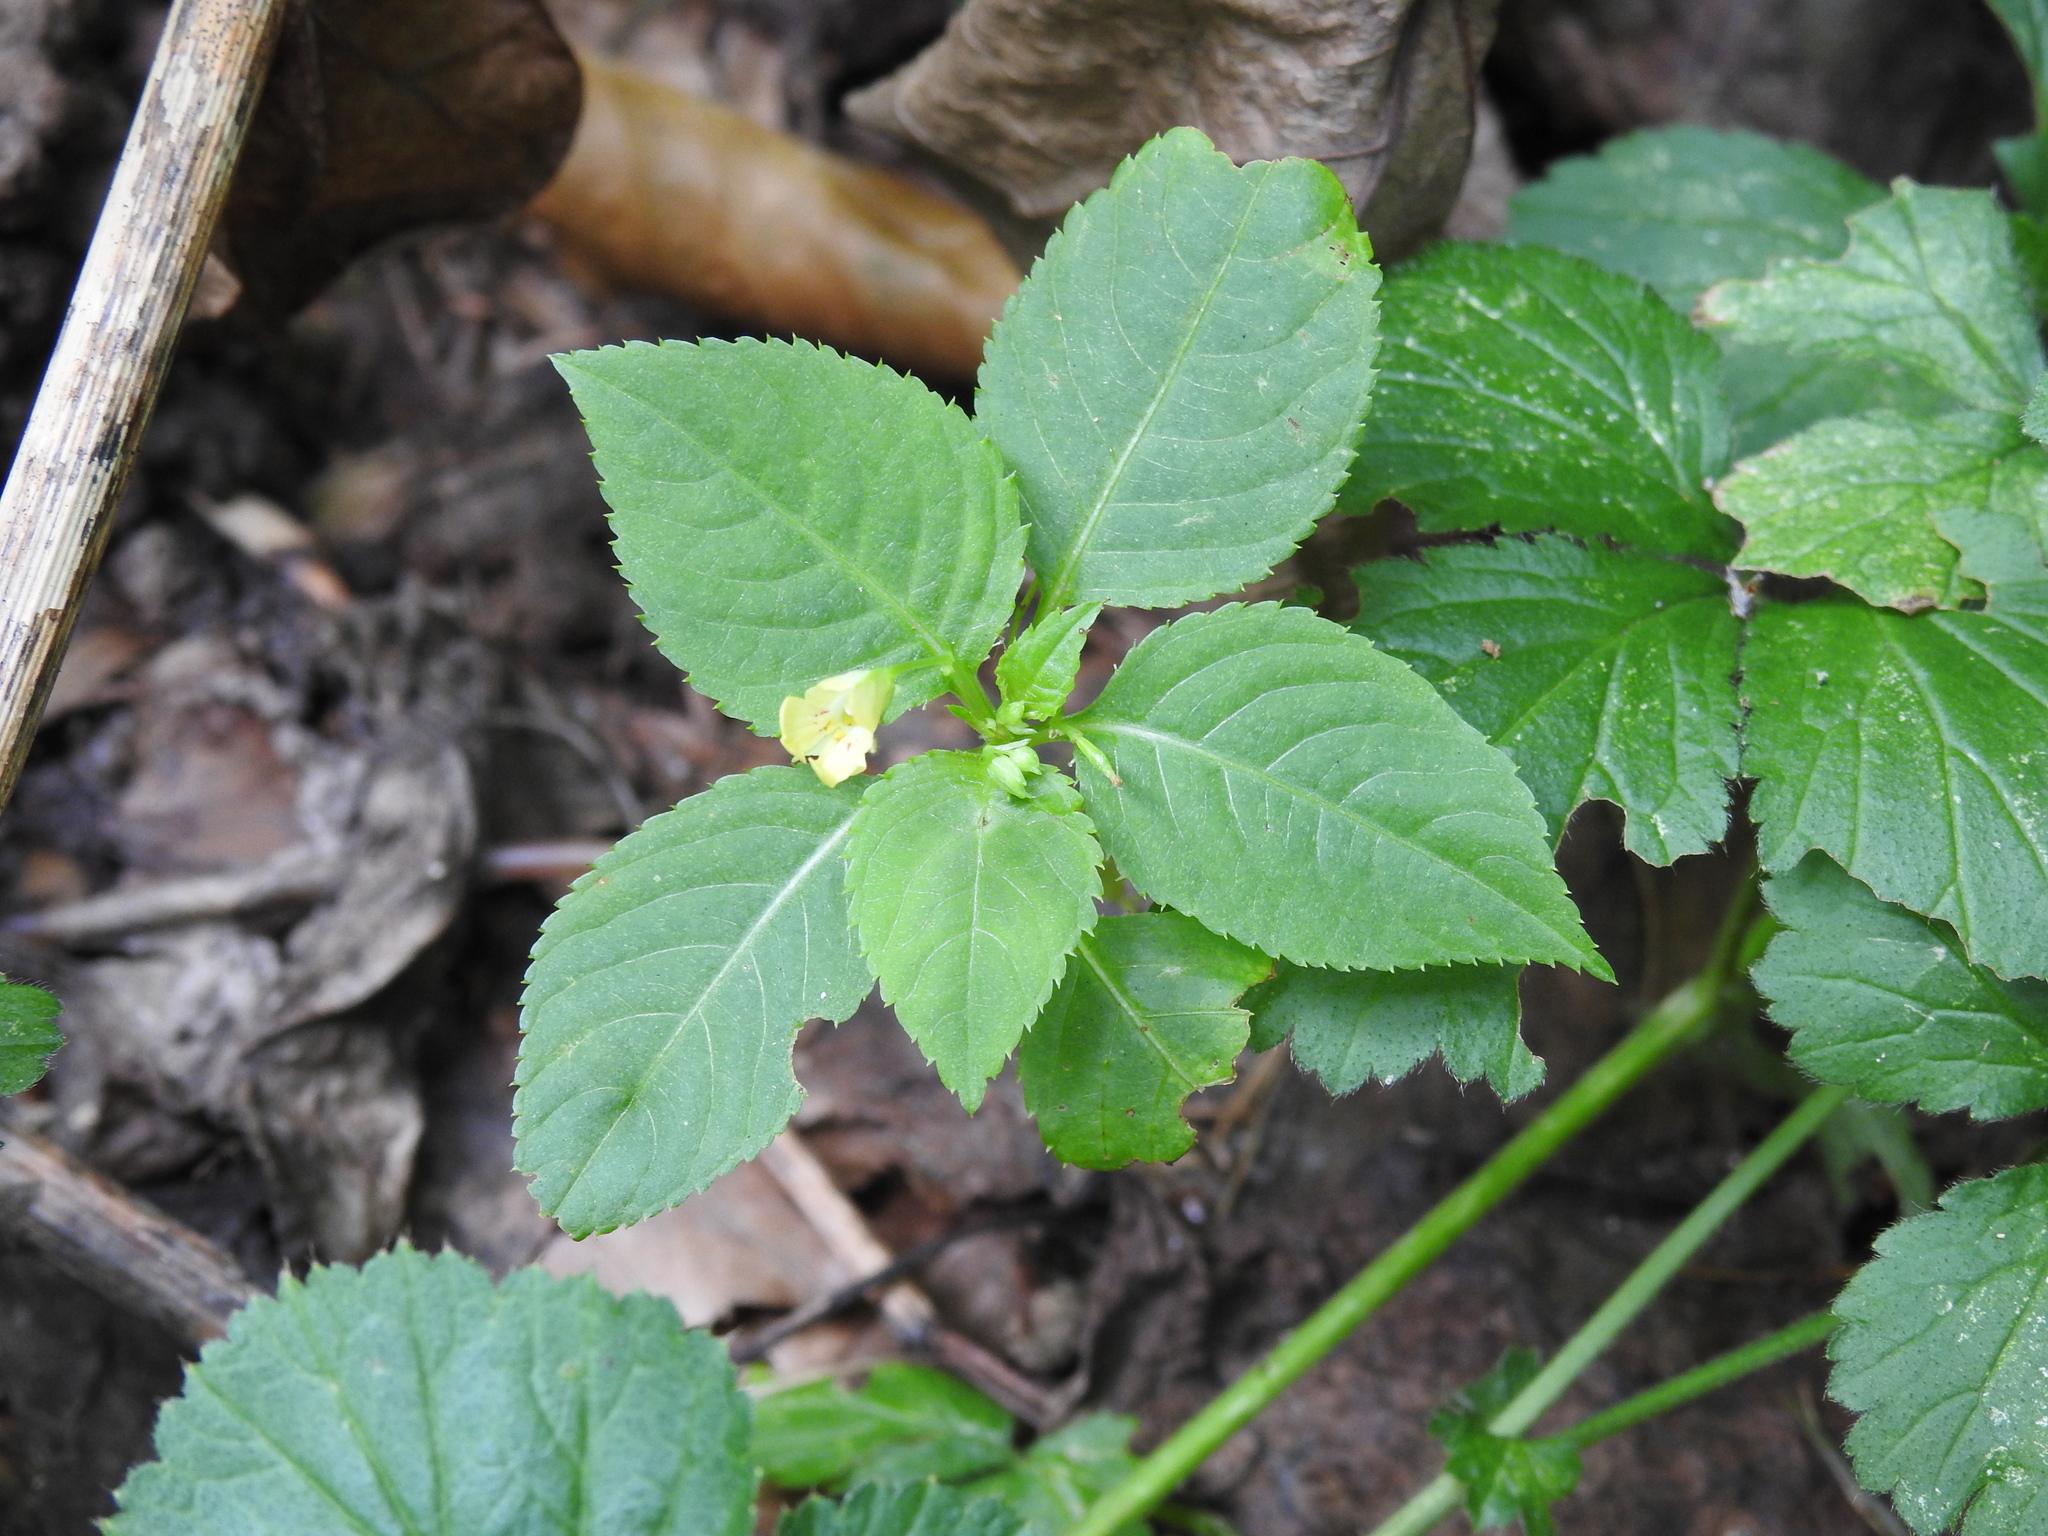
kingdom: Plantae
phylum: Tracheophyta
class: Magnoliopsida
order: Ericales
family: Balsaminaceae
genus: Impatiens
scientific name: Impatiens parviflora
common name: Small balsam
